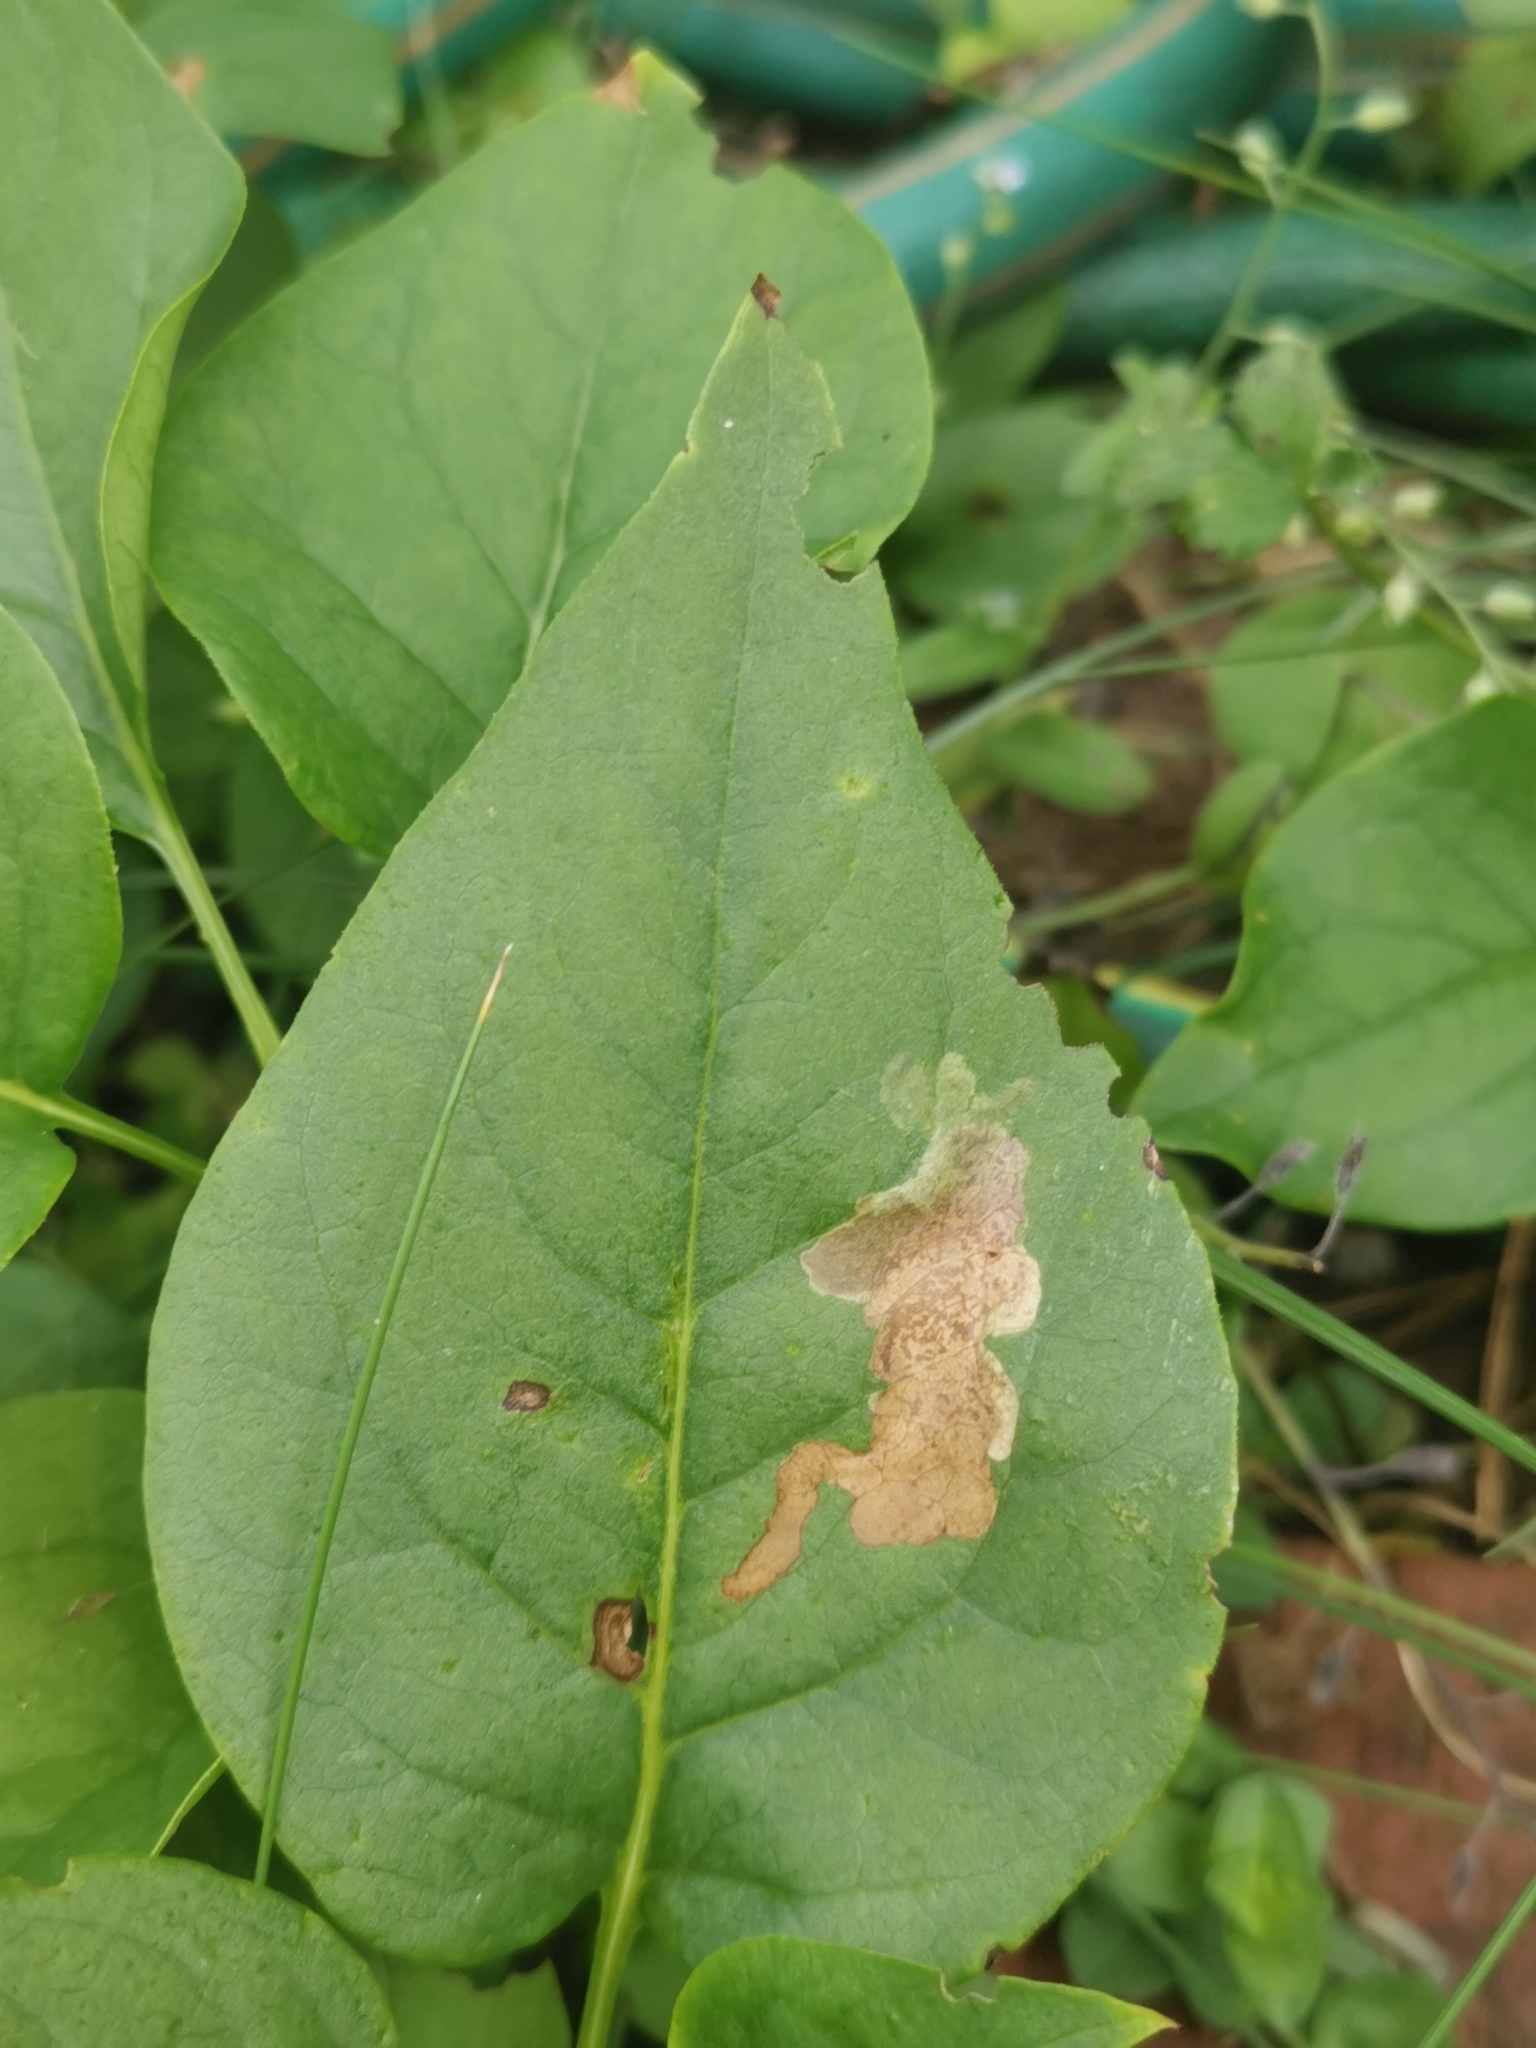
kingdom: Animalia
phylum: Arthropoda
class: Insecta
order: Lepidoptera
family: Gracillariidae
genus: Gracillaria
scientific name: Gracillaria syringella
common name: Common slender
